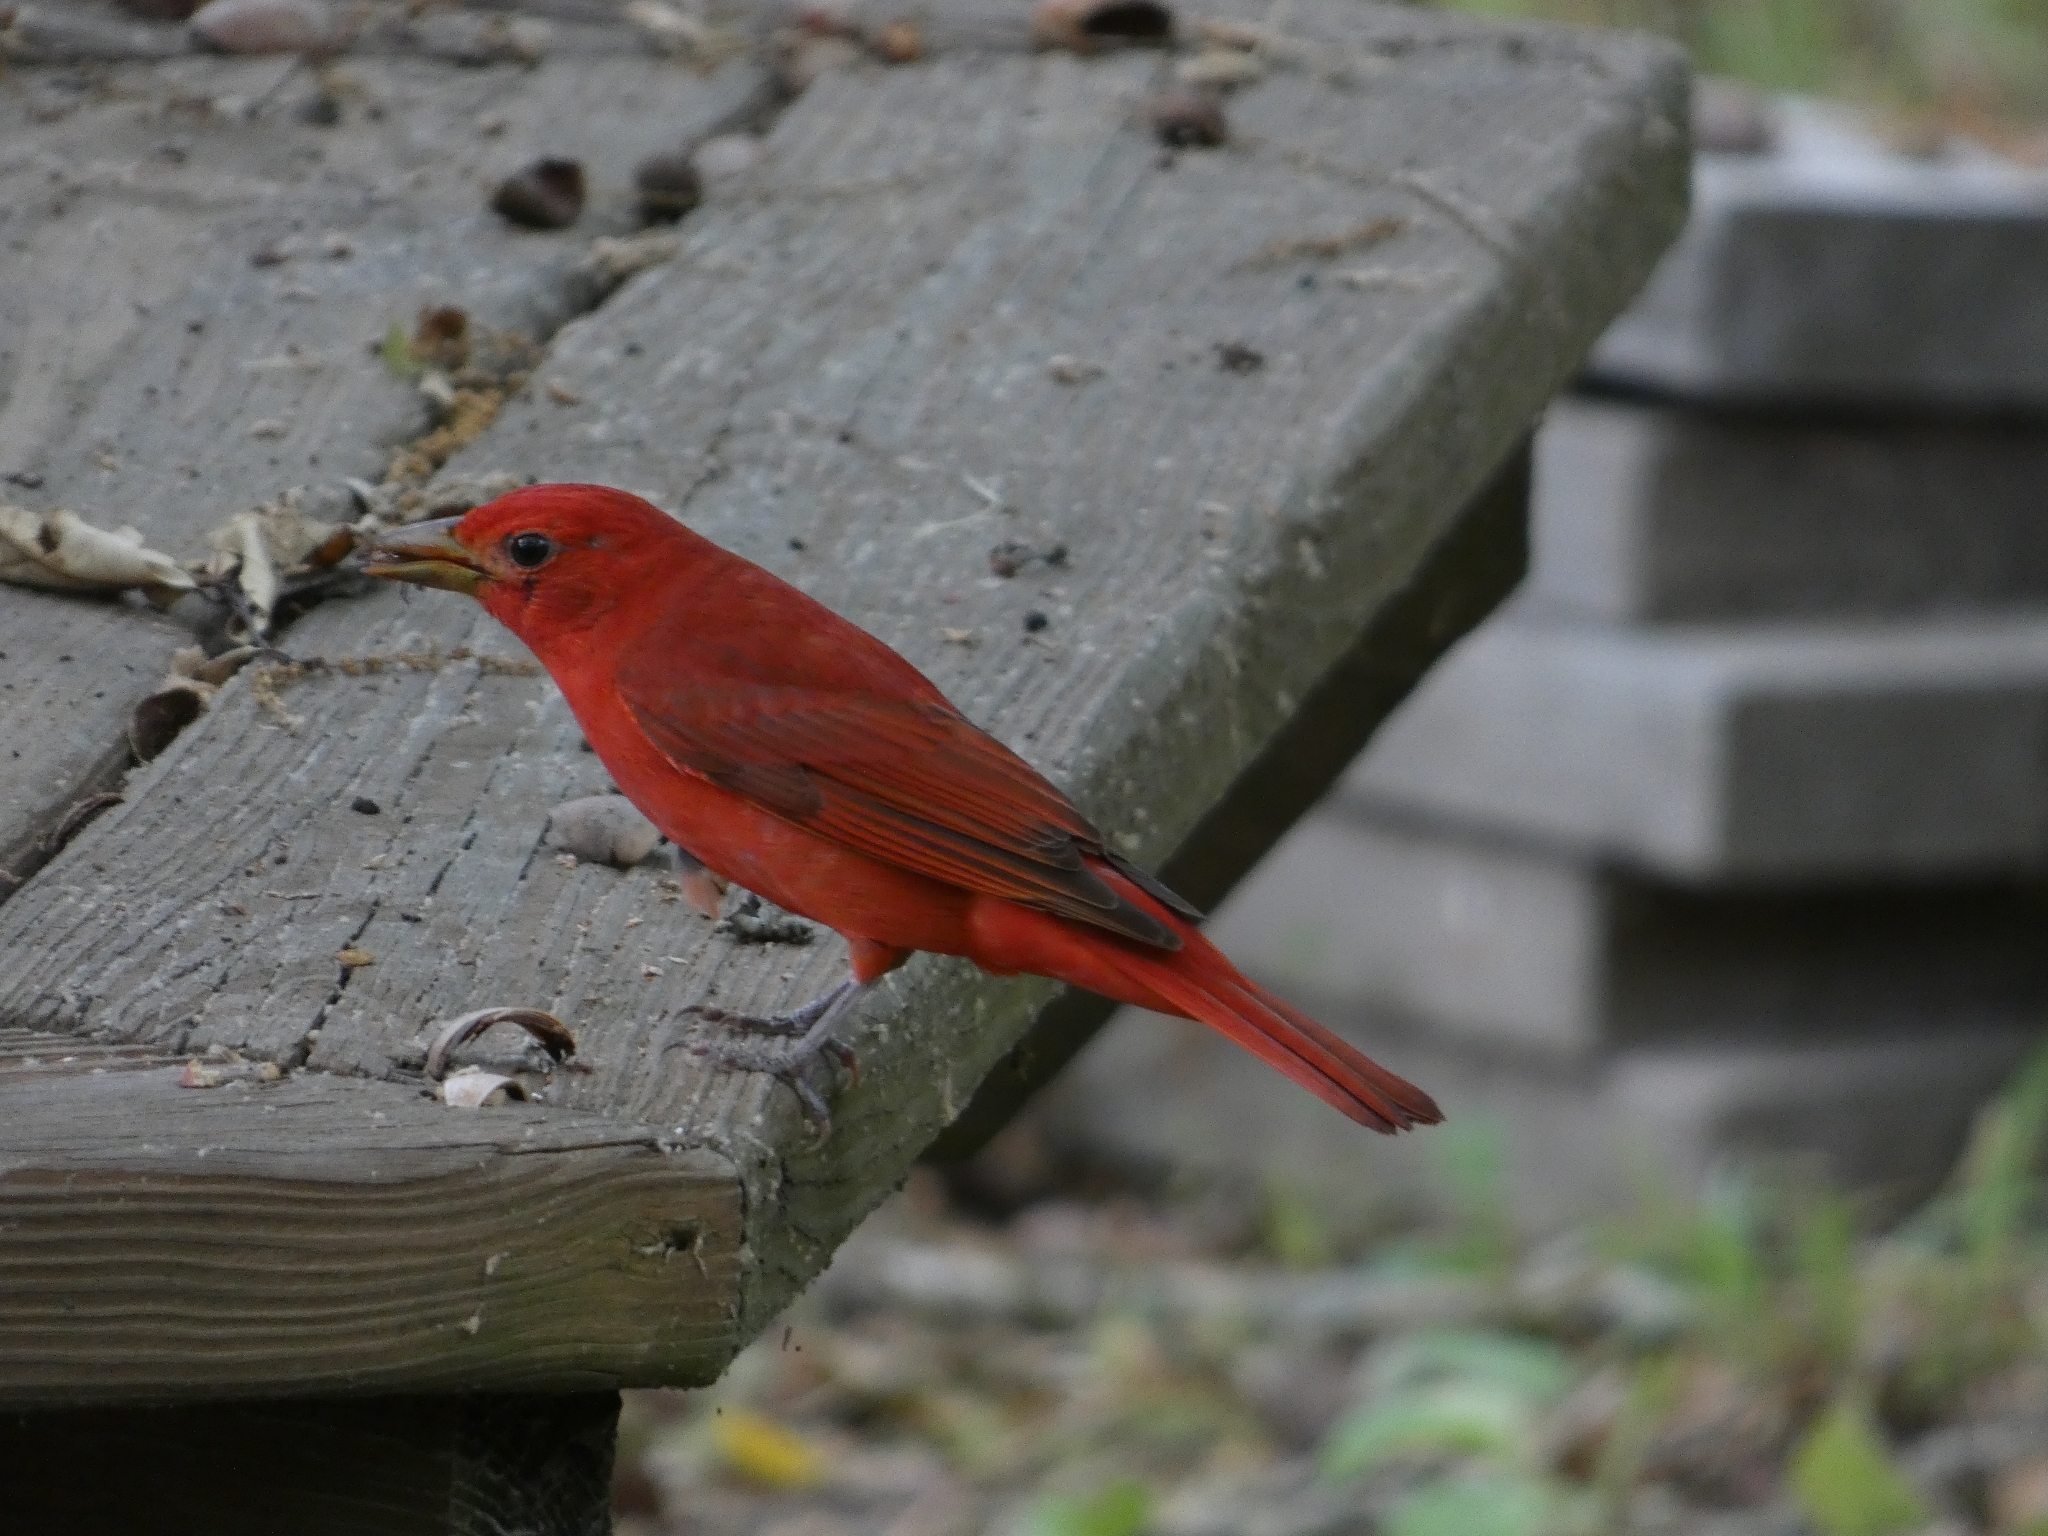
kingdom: Animalia
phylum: Chordata
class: Aves
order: Passeriformes
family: Cardinalidae
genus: Piranga
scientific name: Piranga rubra
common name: Summer tanager
